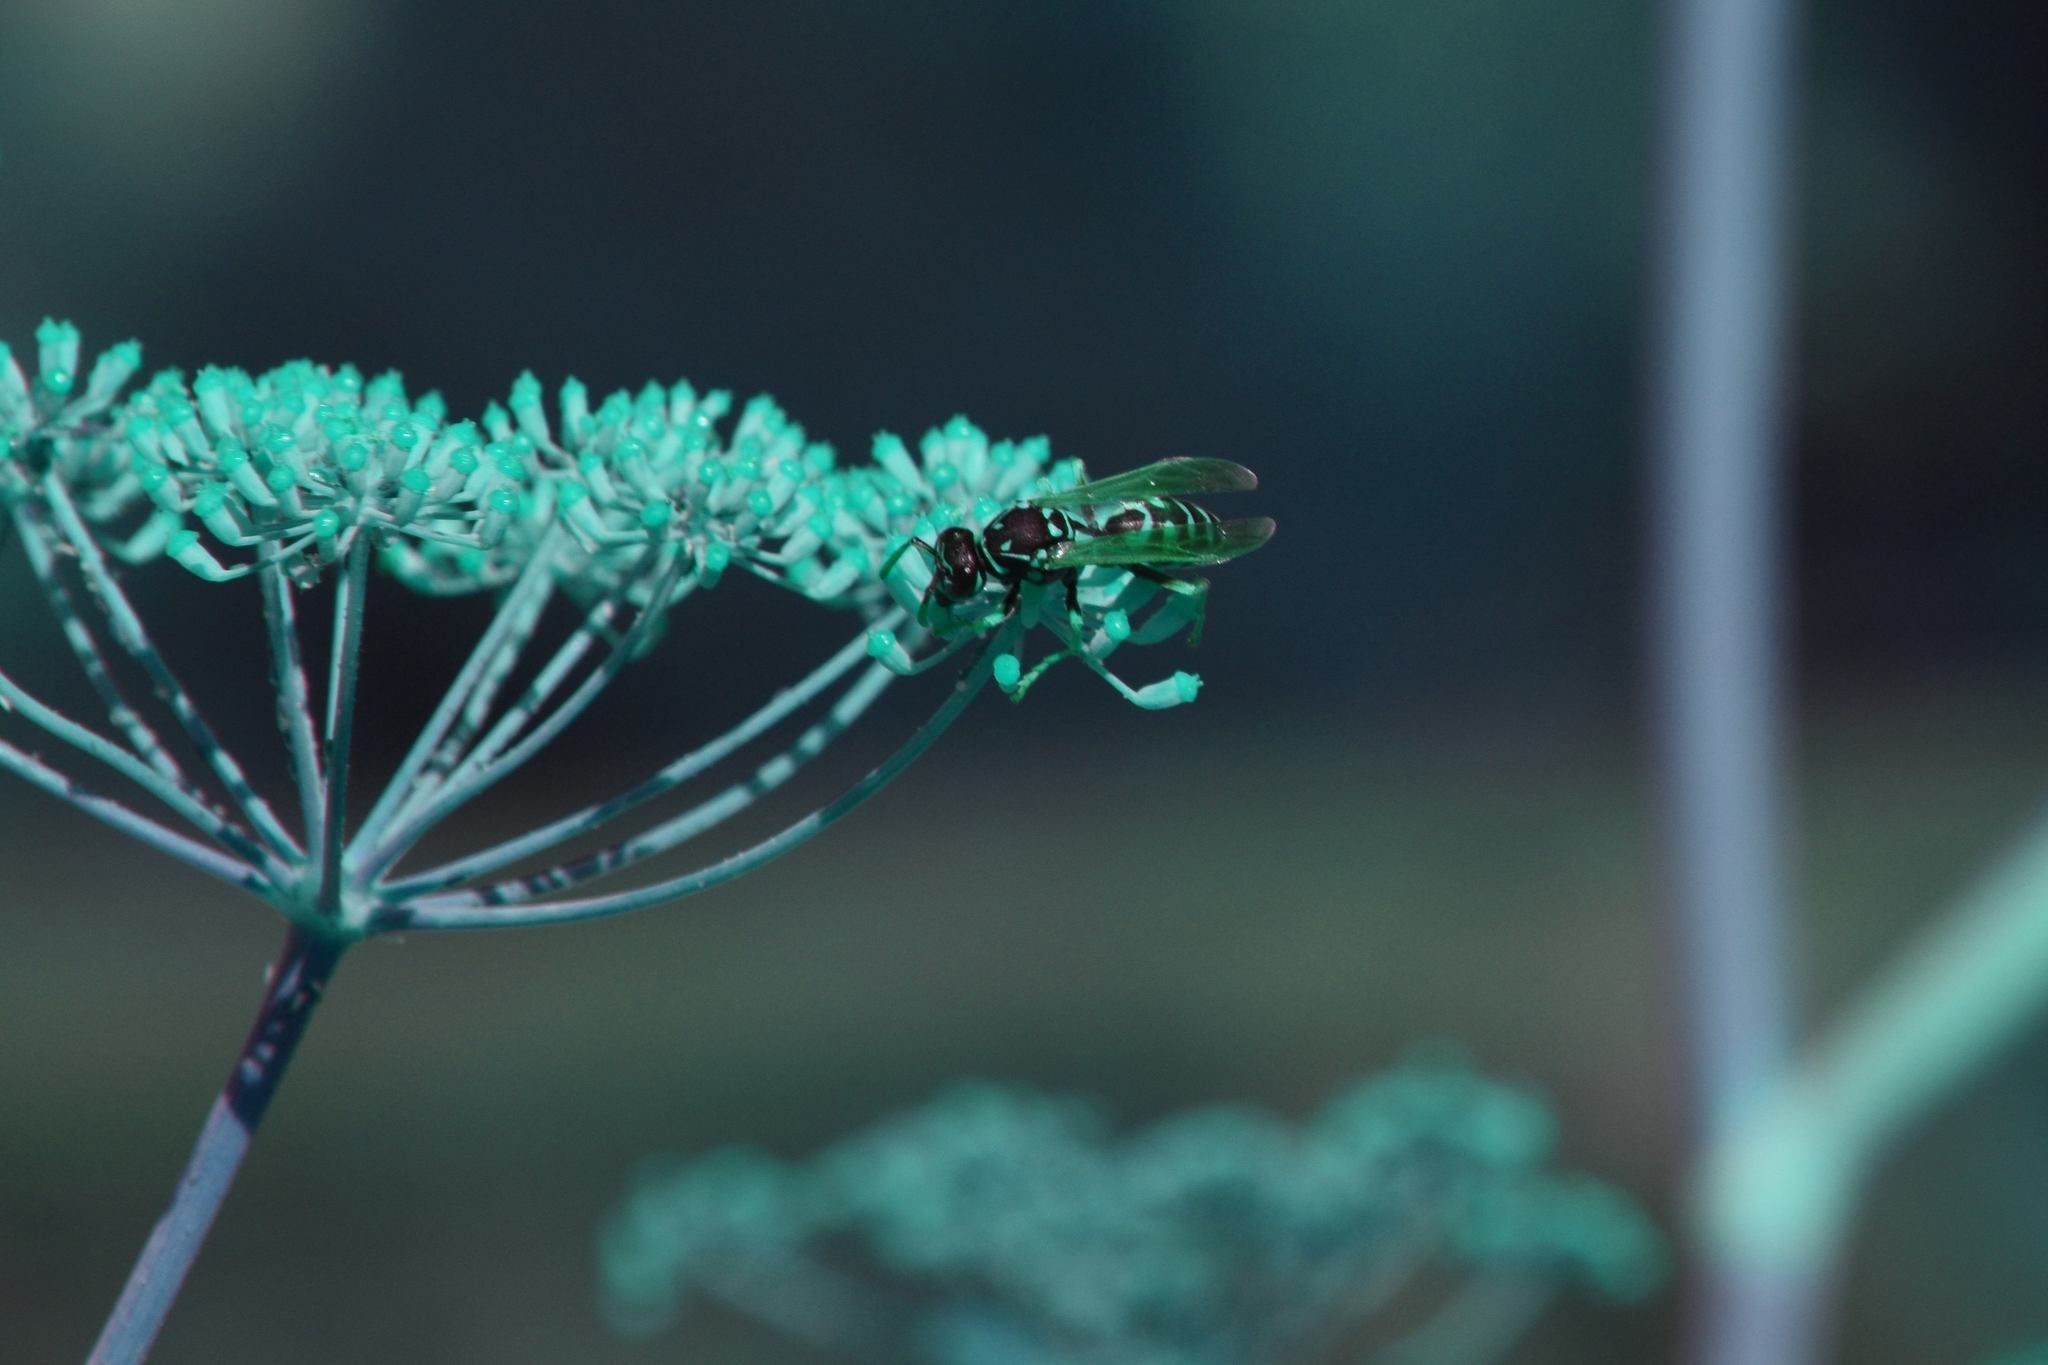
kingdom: Animalia
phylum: Arthropoda
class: Insecta
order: Hymenoptera
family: Eumenidae
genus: Polistes
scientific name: Polistes dominula
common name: Paper wasp
